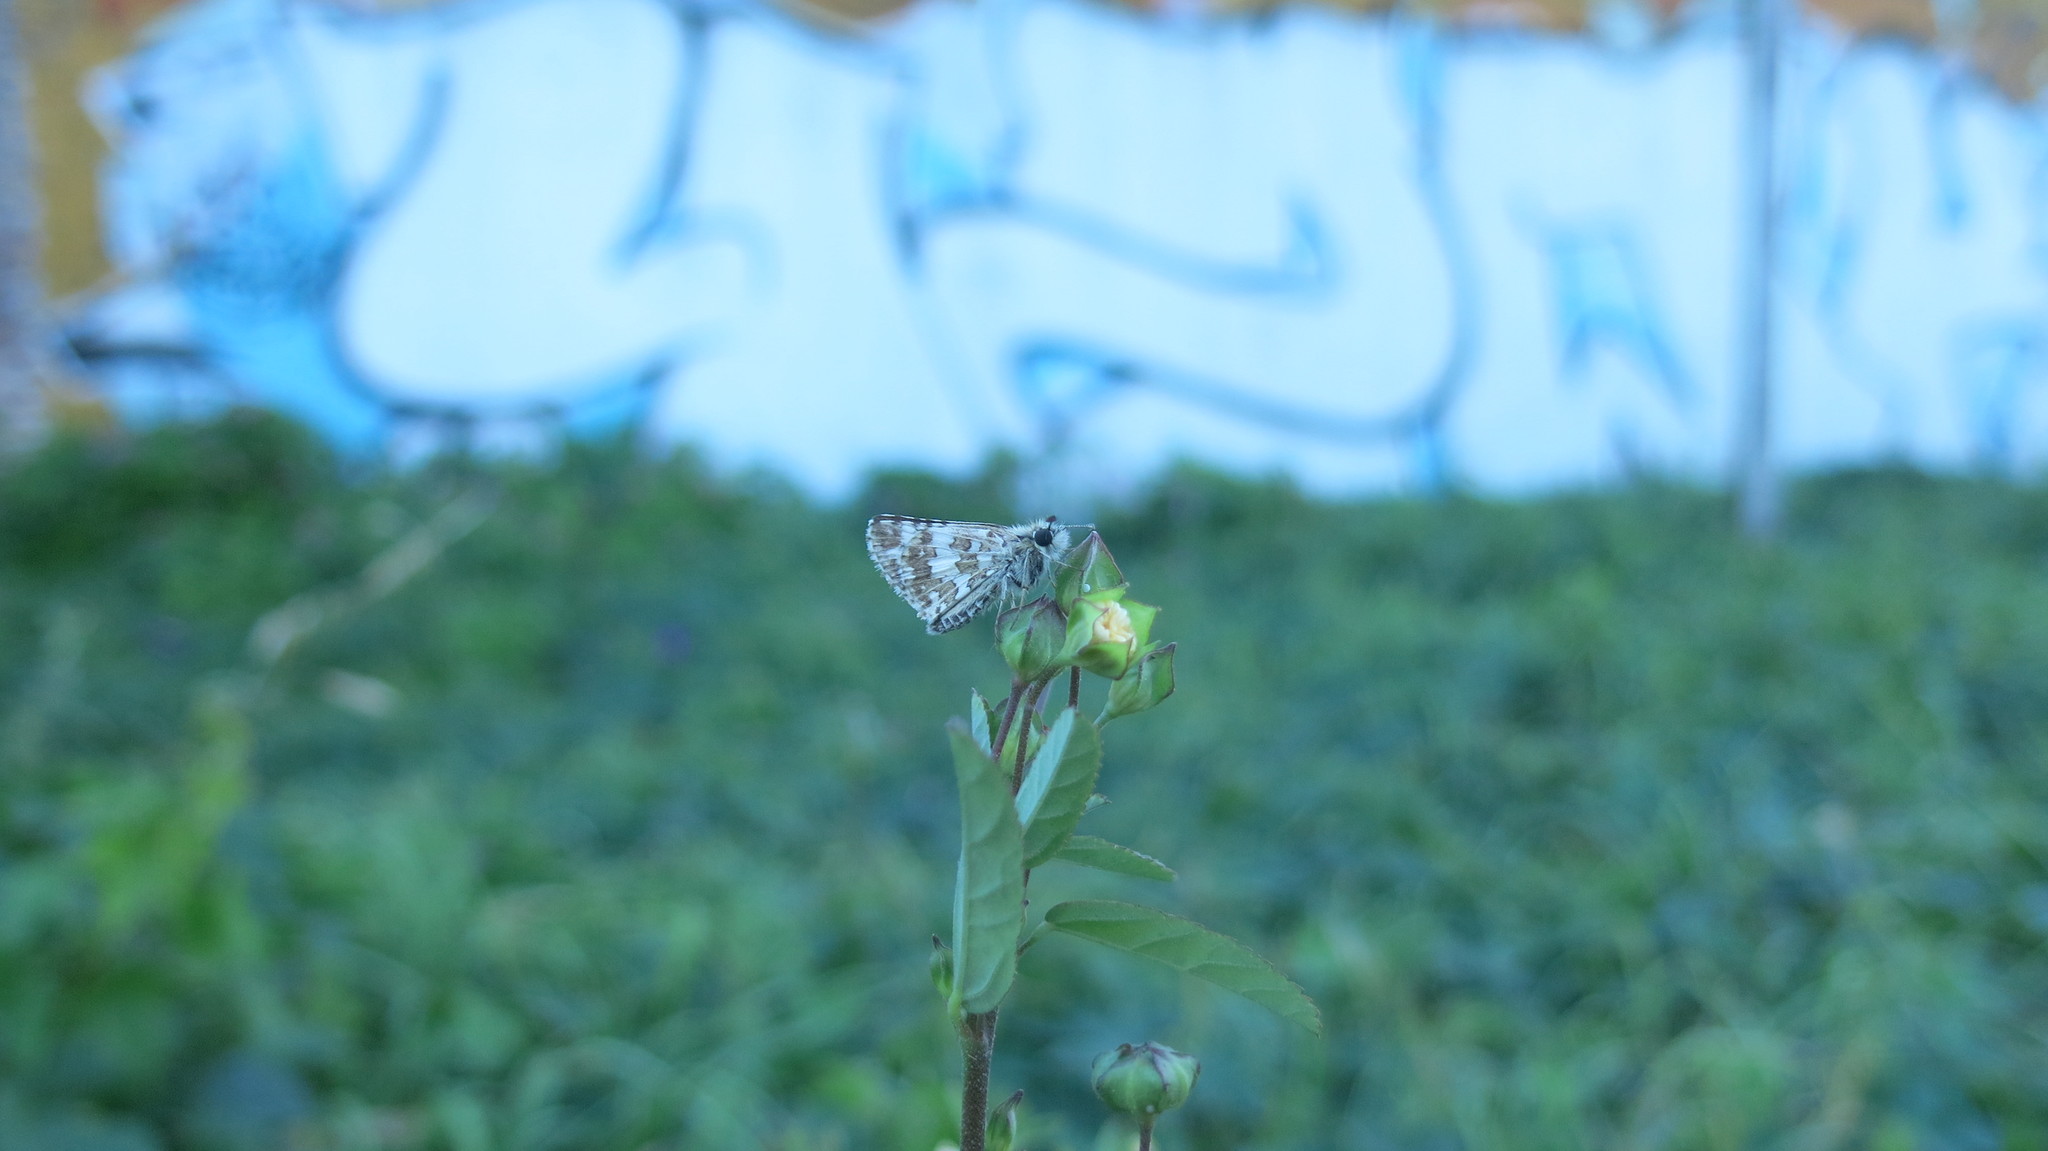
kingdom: Animalia
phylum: Arthropoda
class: Insecta
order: Lepidoptera
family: Hesperiidae
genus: Burnsius
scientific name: Burnsius orcynoides
